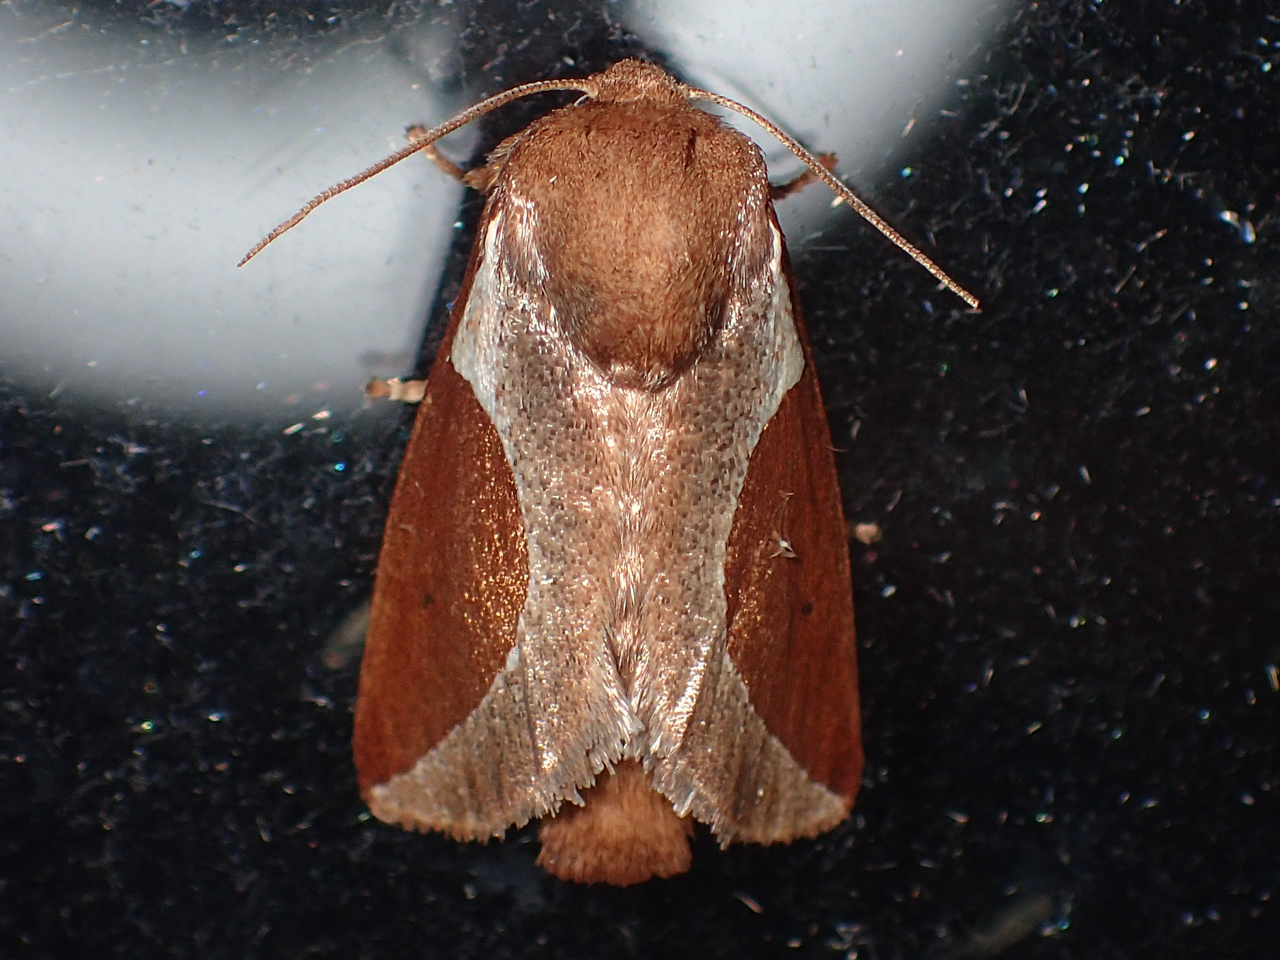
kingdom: Animalia
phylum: Arthropoda
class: Insecta
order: Lepidoptera
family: Limacodidae
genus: Prolimacodes
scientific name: Prolimacodes badia
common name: Skiff moth
